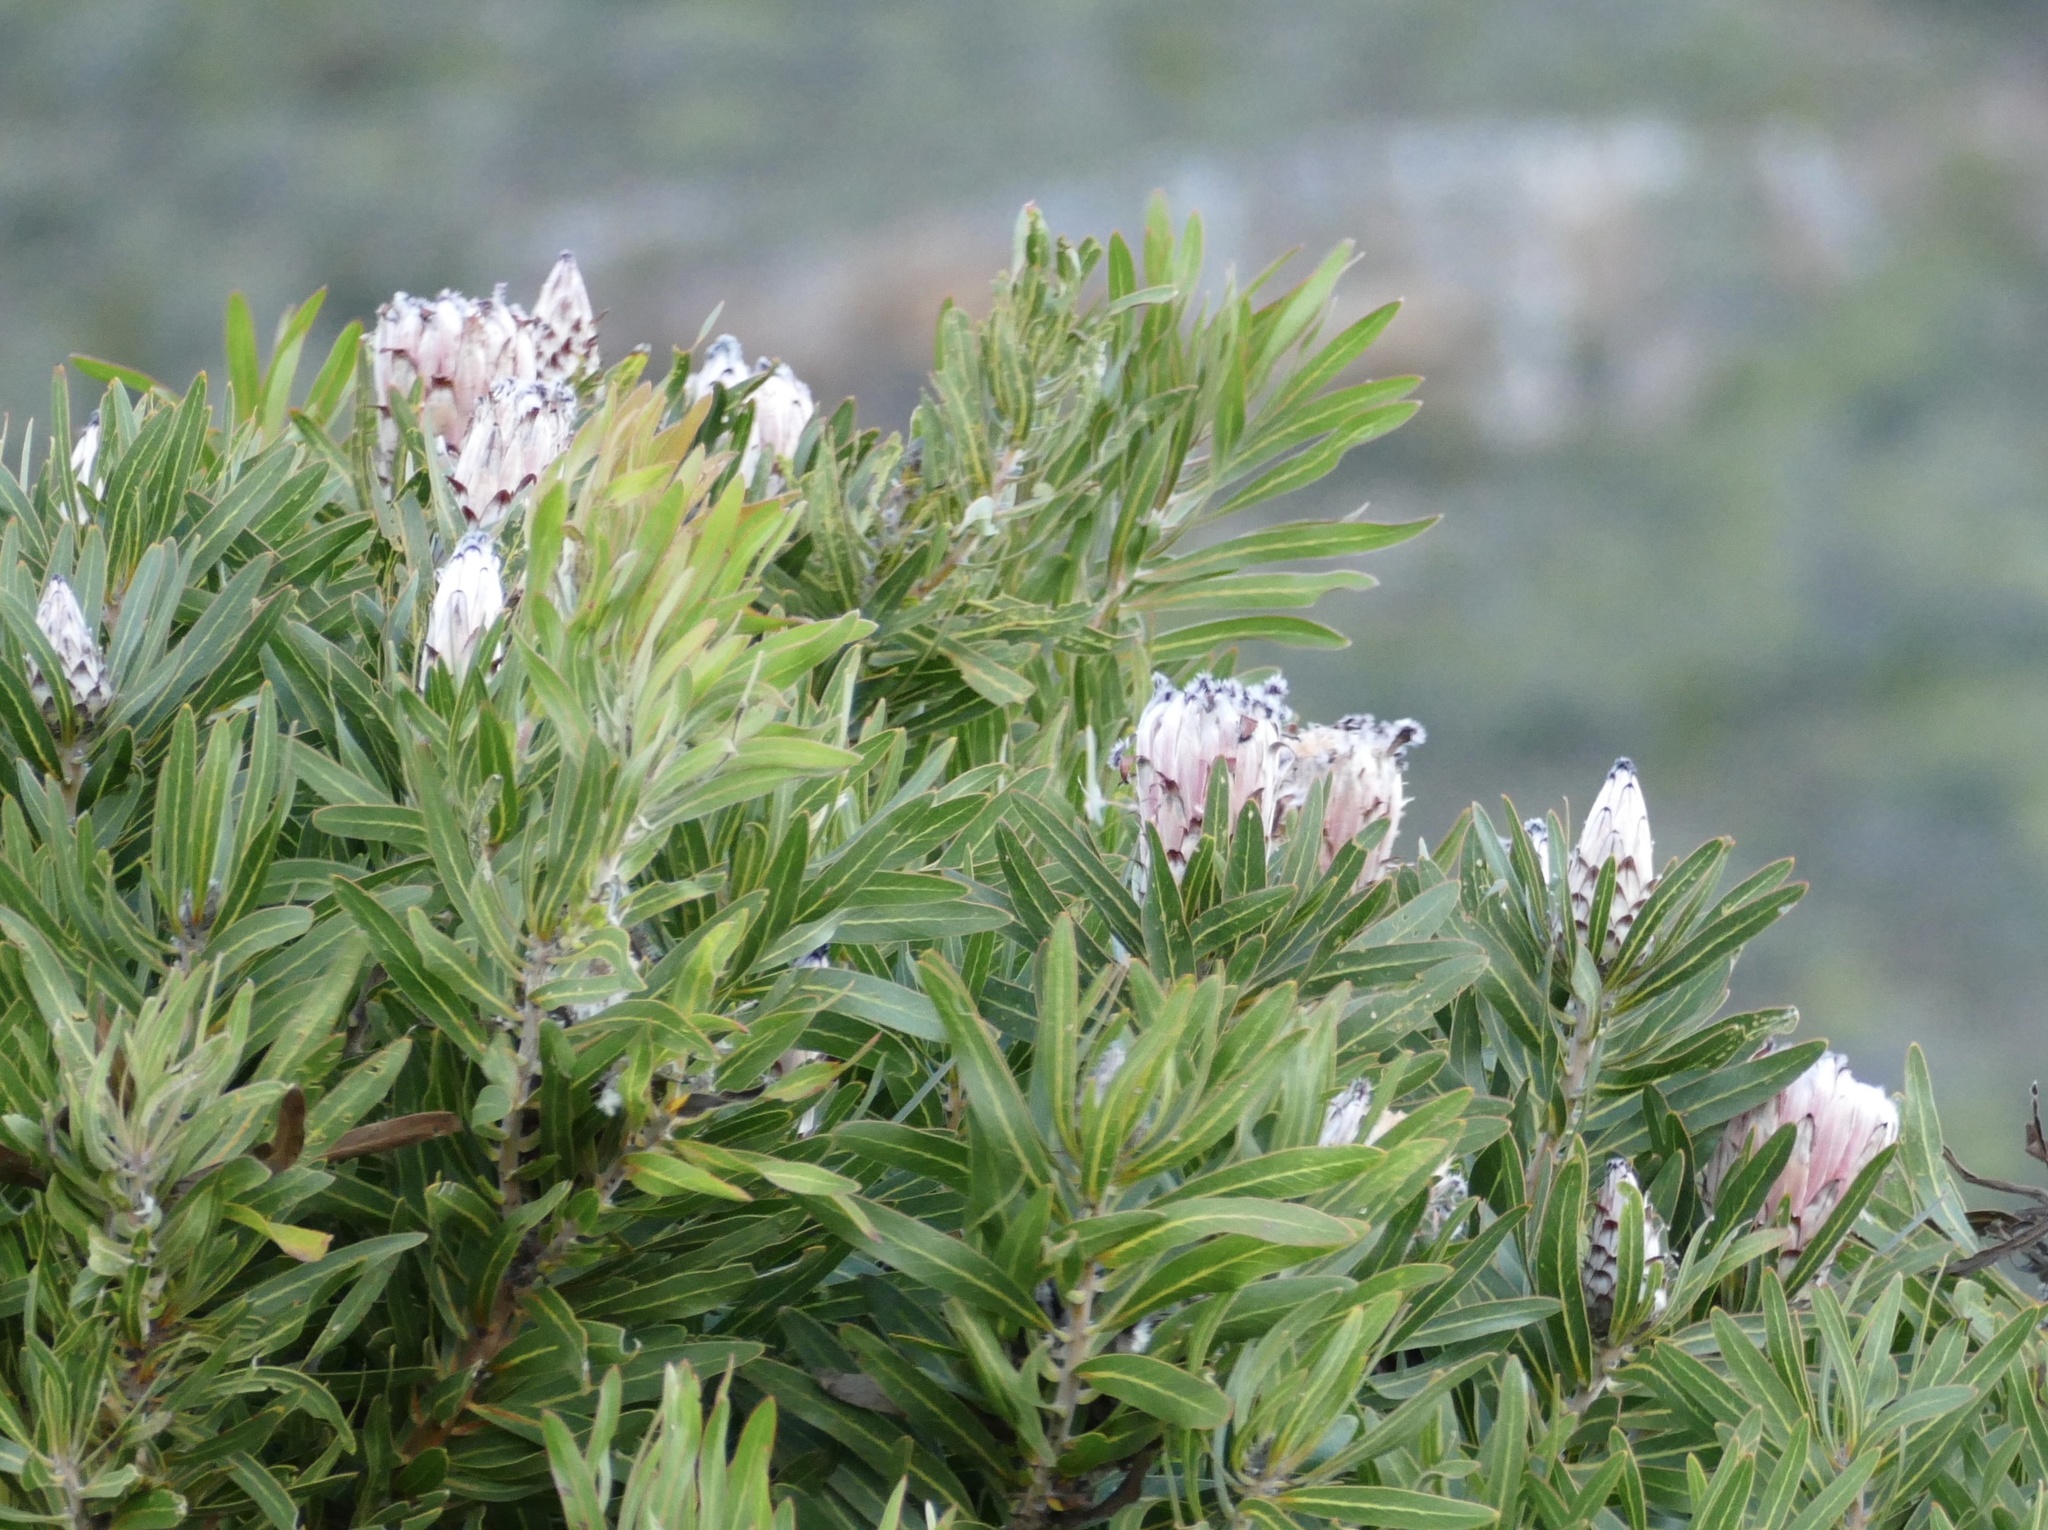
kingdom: Plantae
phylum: Tracheophyta
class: Magnoliopsida
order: Proteales
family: Proteaceae
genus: Protea
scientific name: Protea
